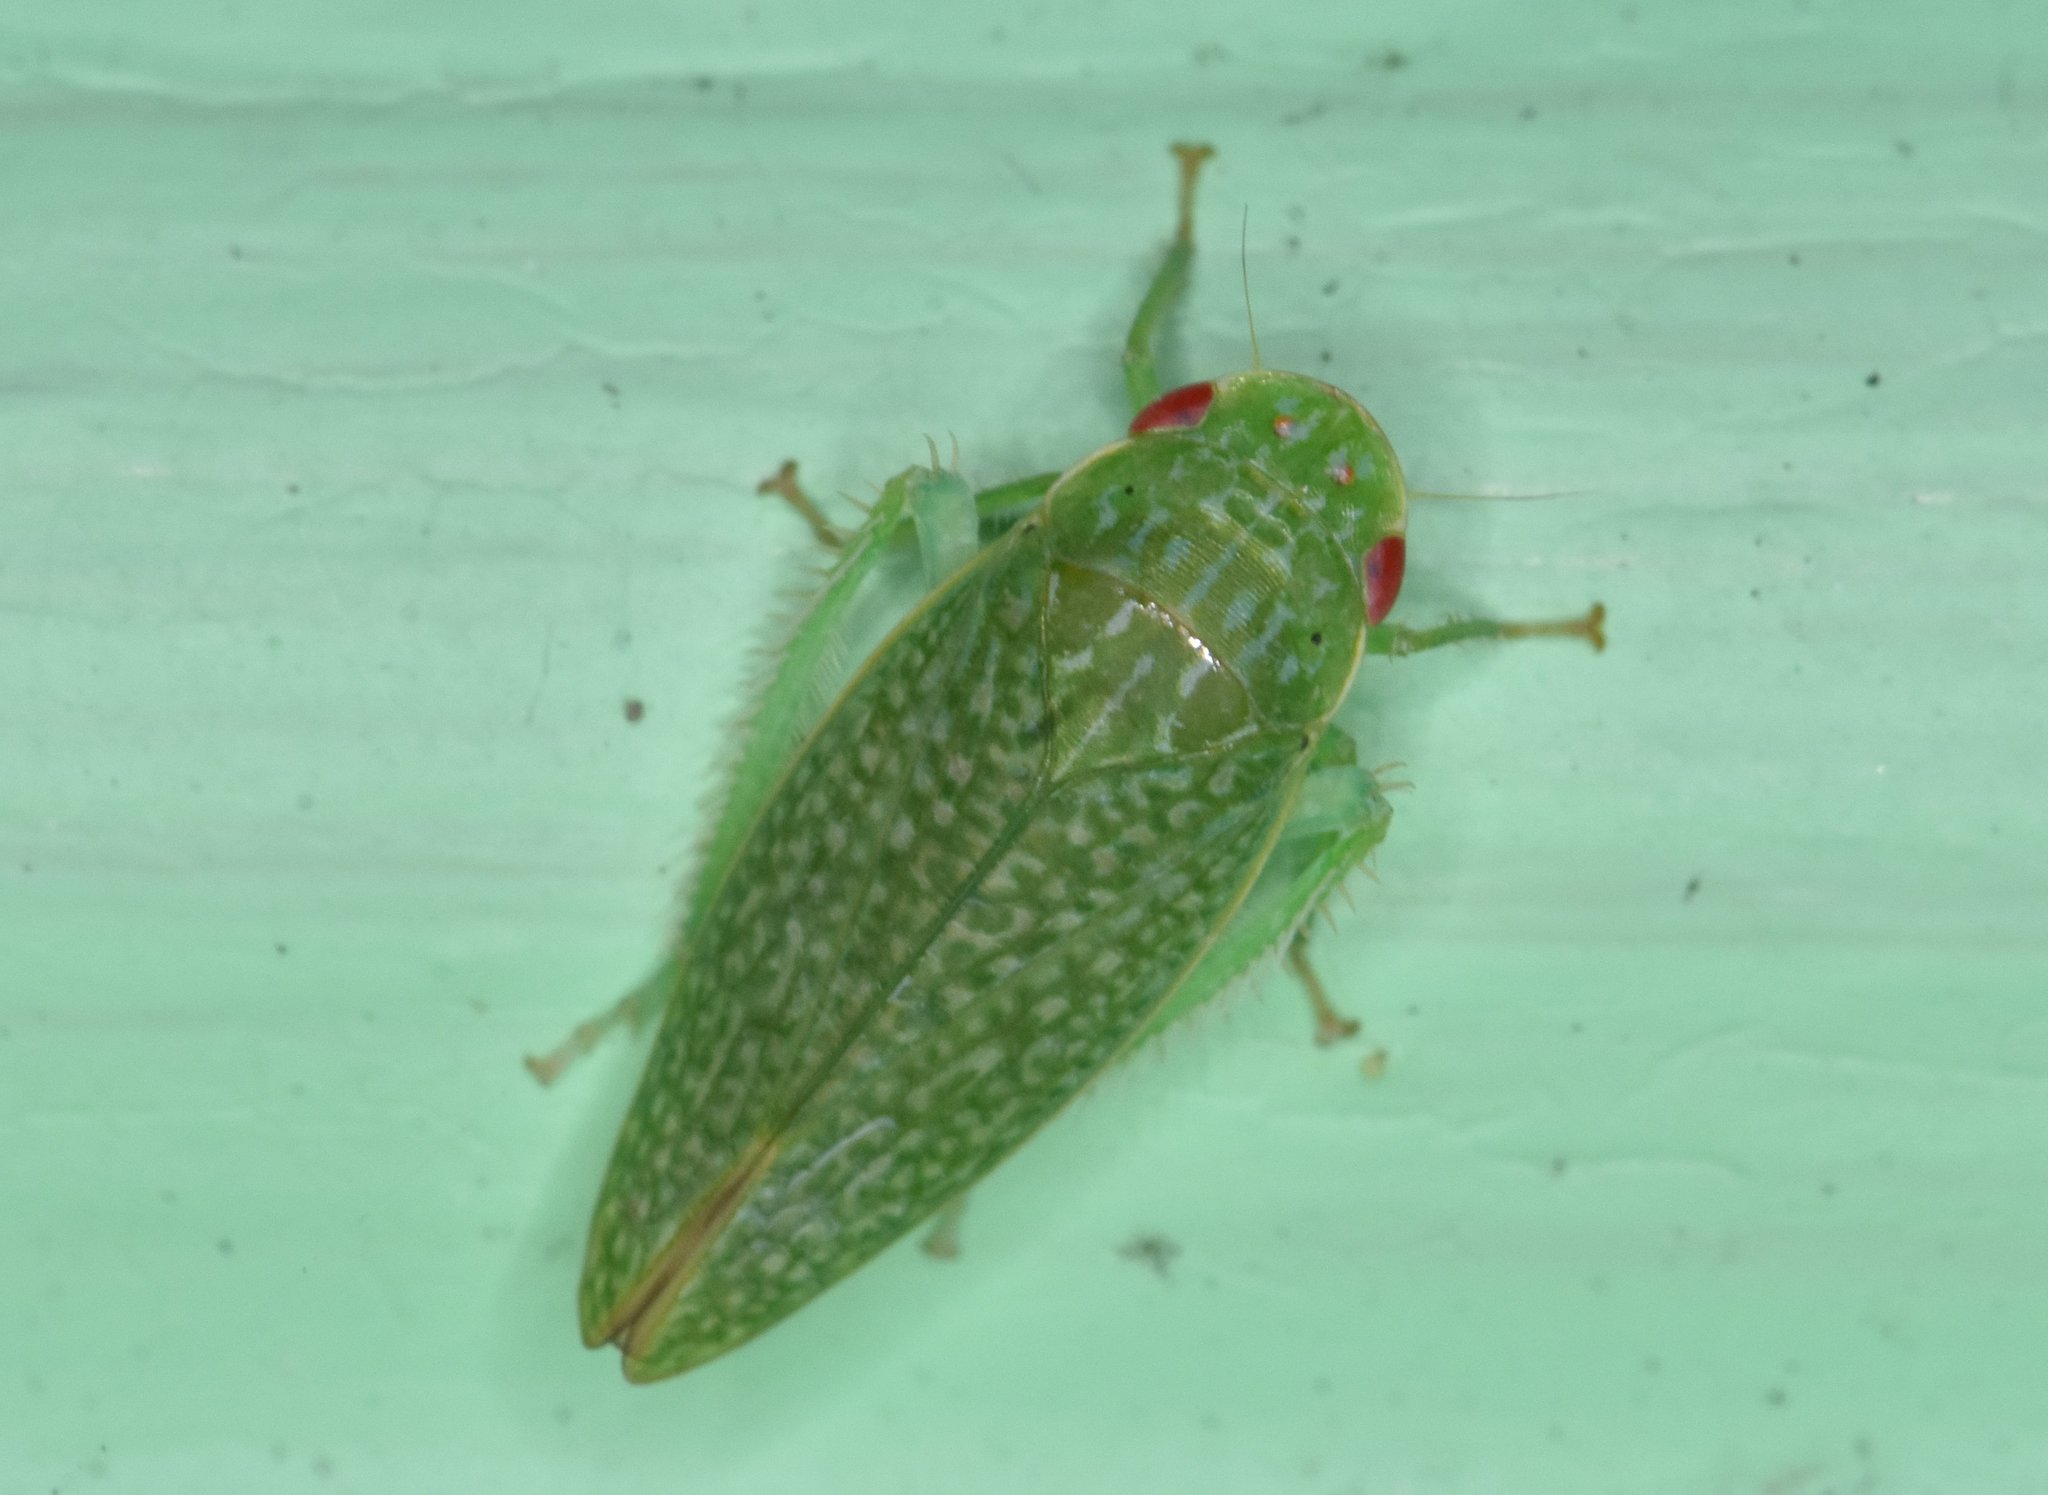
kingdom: Animalia
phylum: Arthropoda
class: Insecta
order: Hemiptera
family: Cicadellidae
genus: Rugosana
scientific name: Rugosana querci
